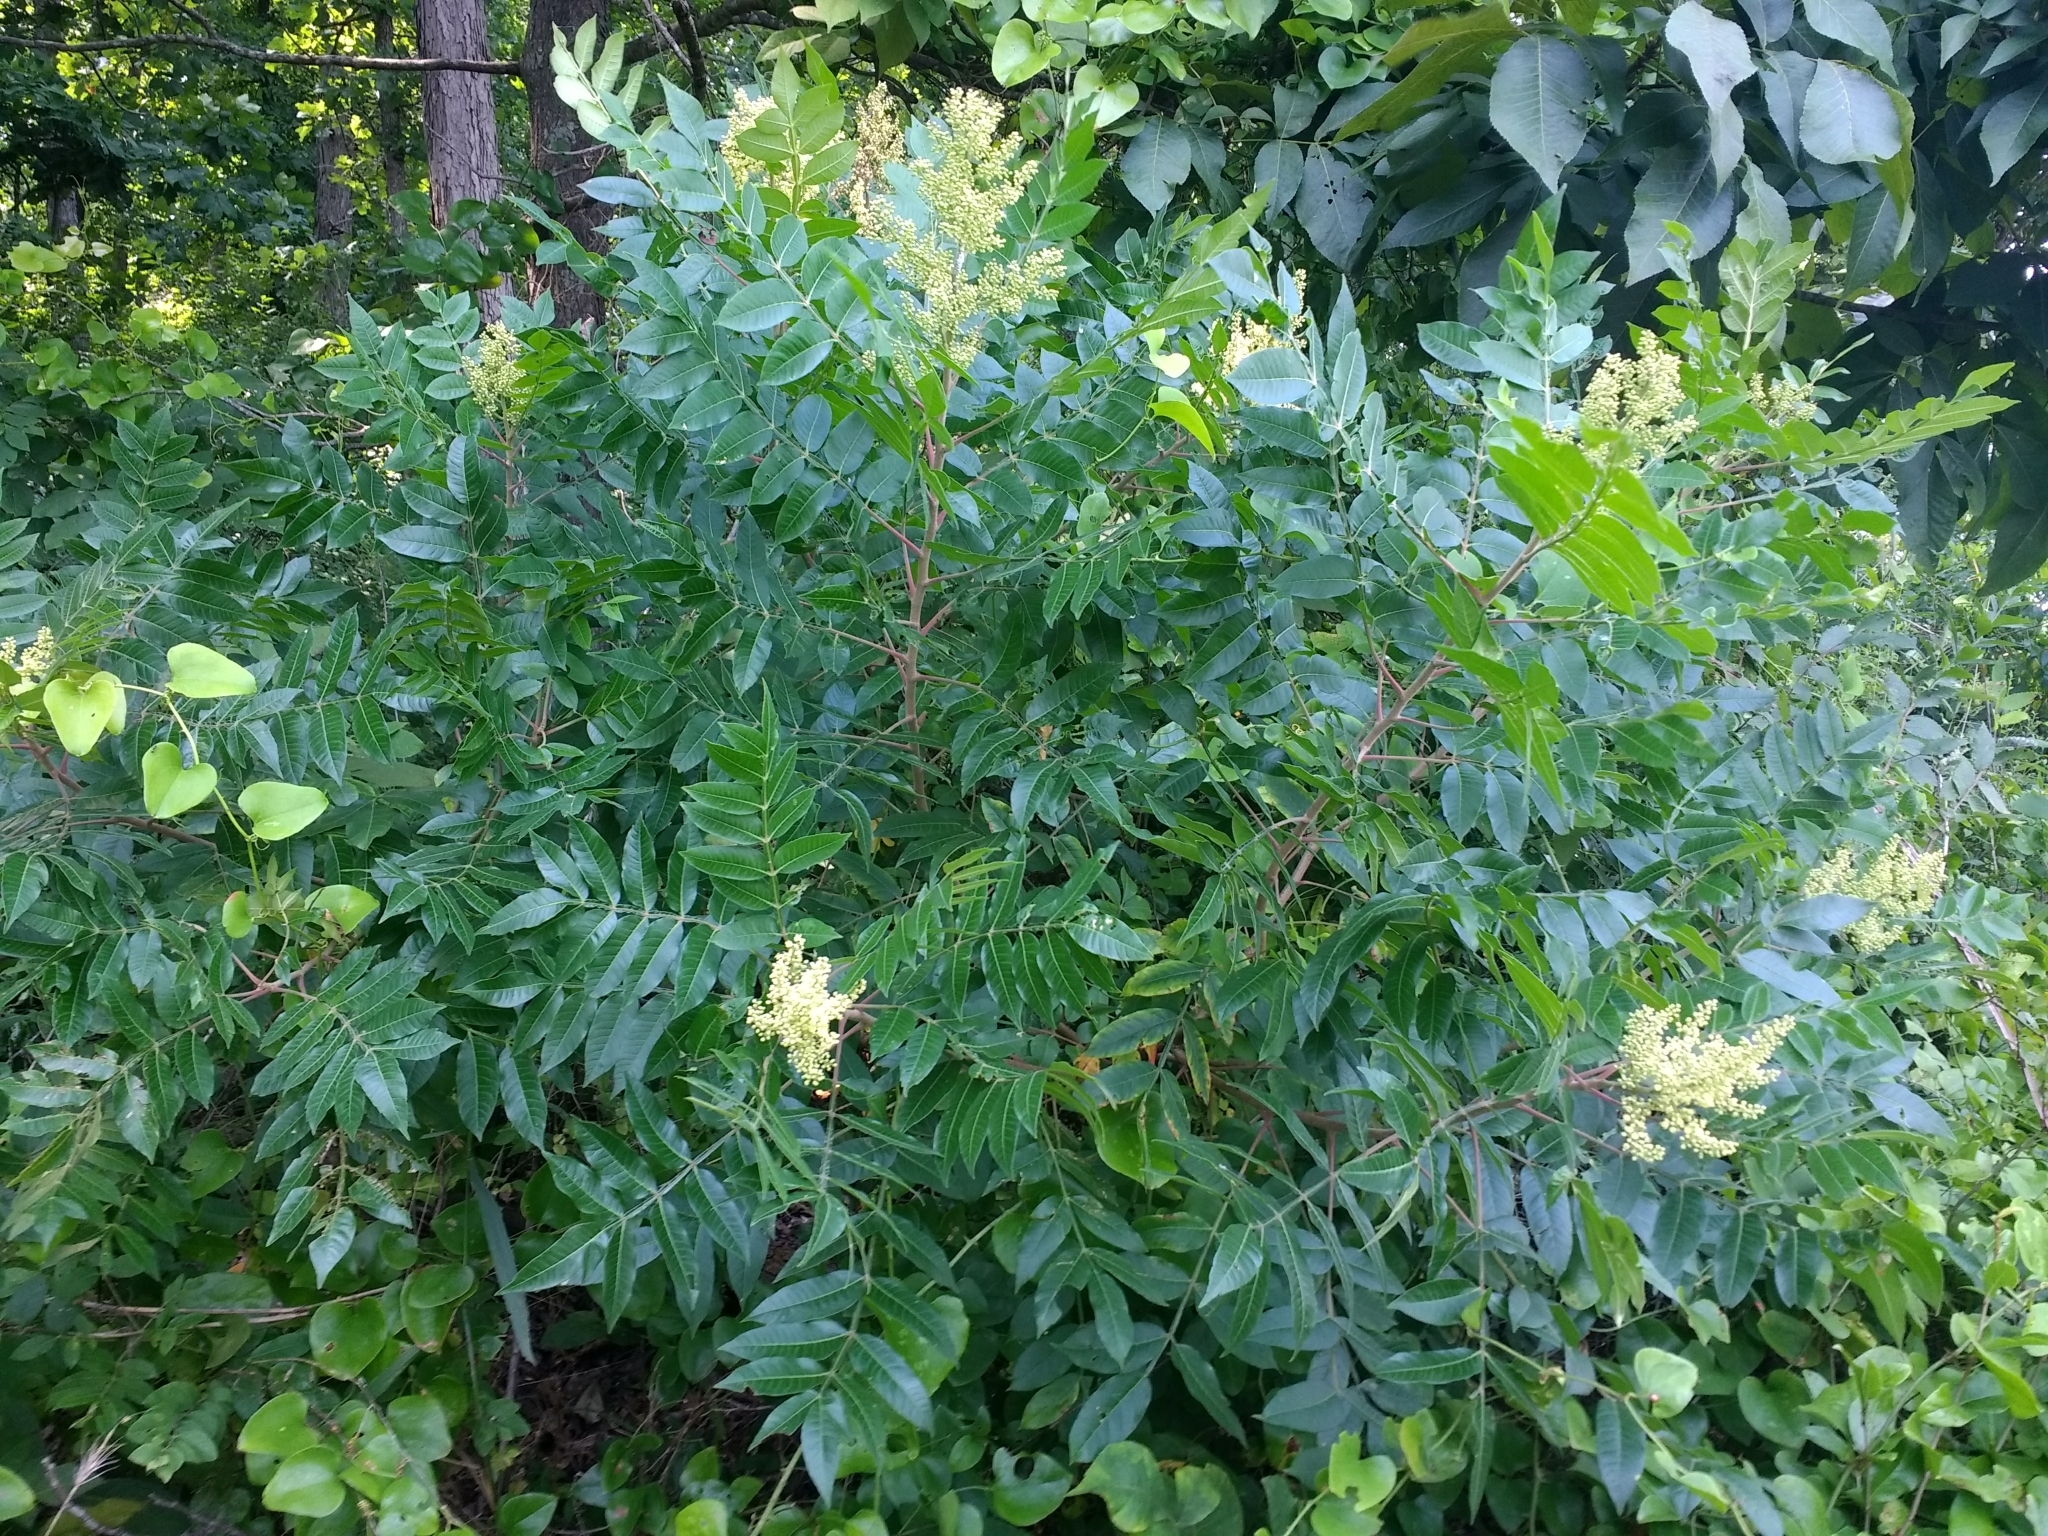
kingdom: Plantae
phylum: Tracheophyta
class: Magnoliopsida
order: Sapindales
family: Anacardiaceae
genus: Rhus
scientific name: Rhus copallina
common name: Shining sumac
